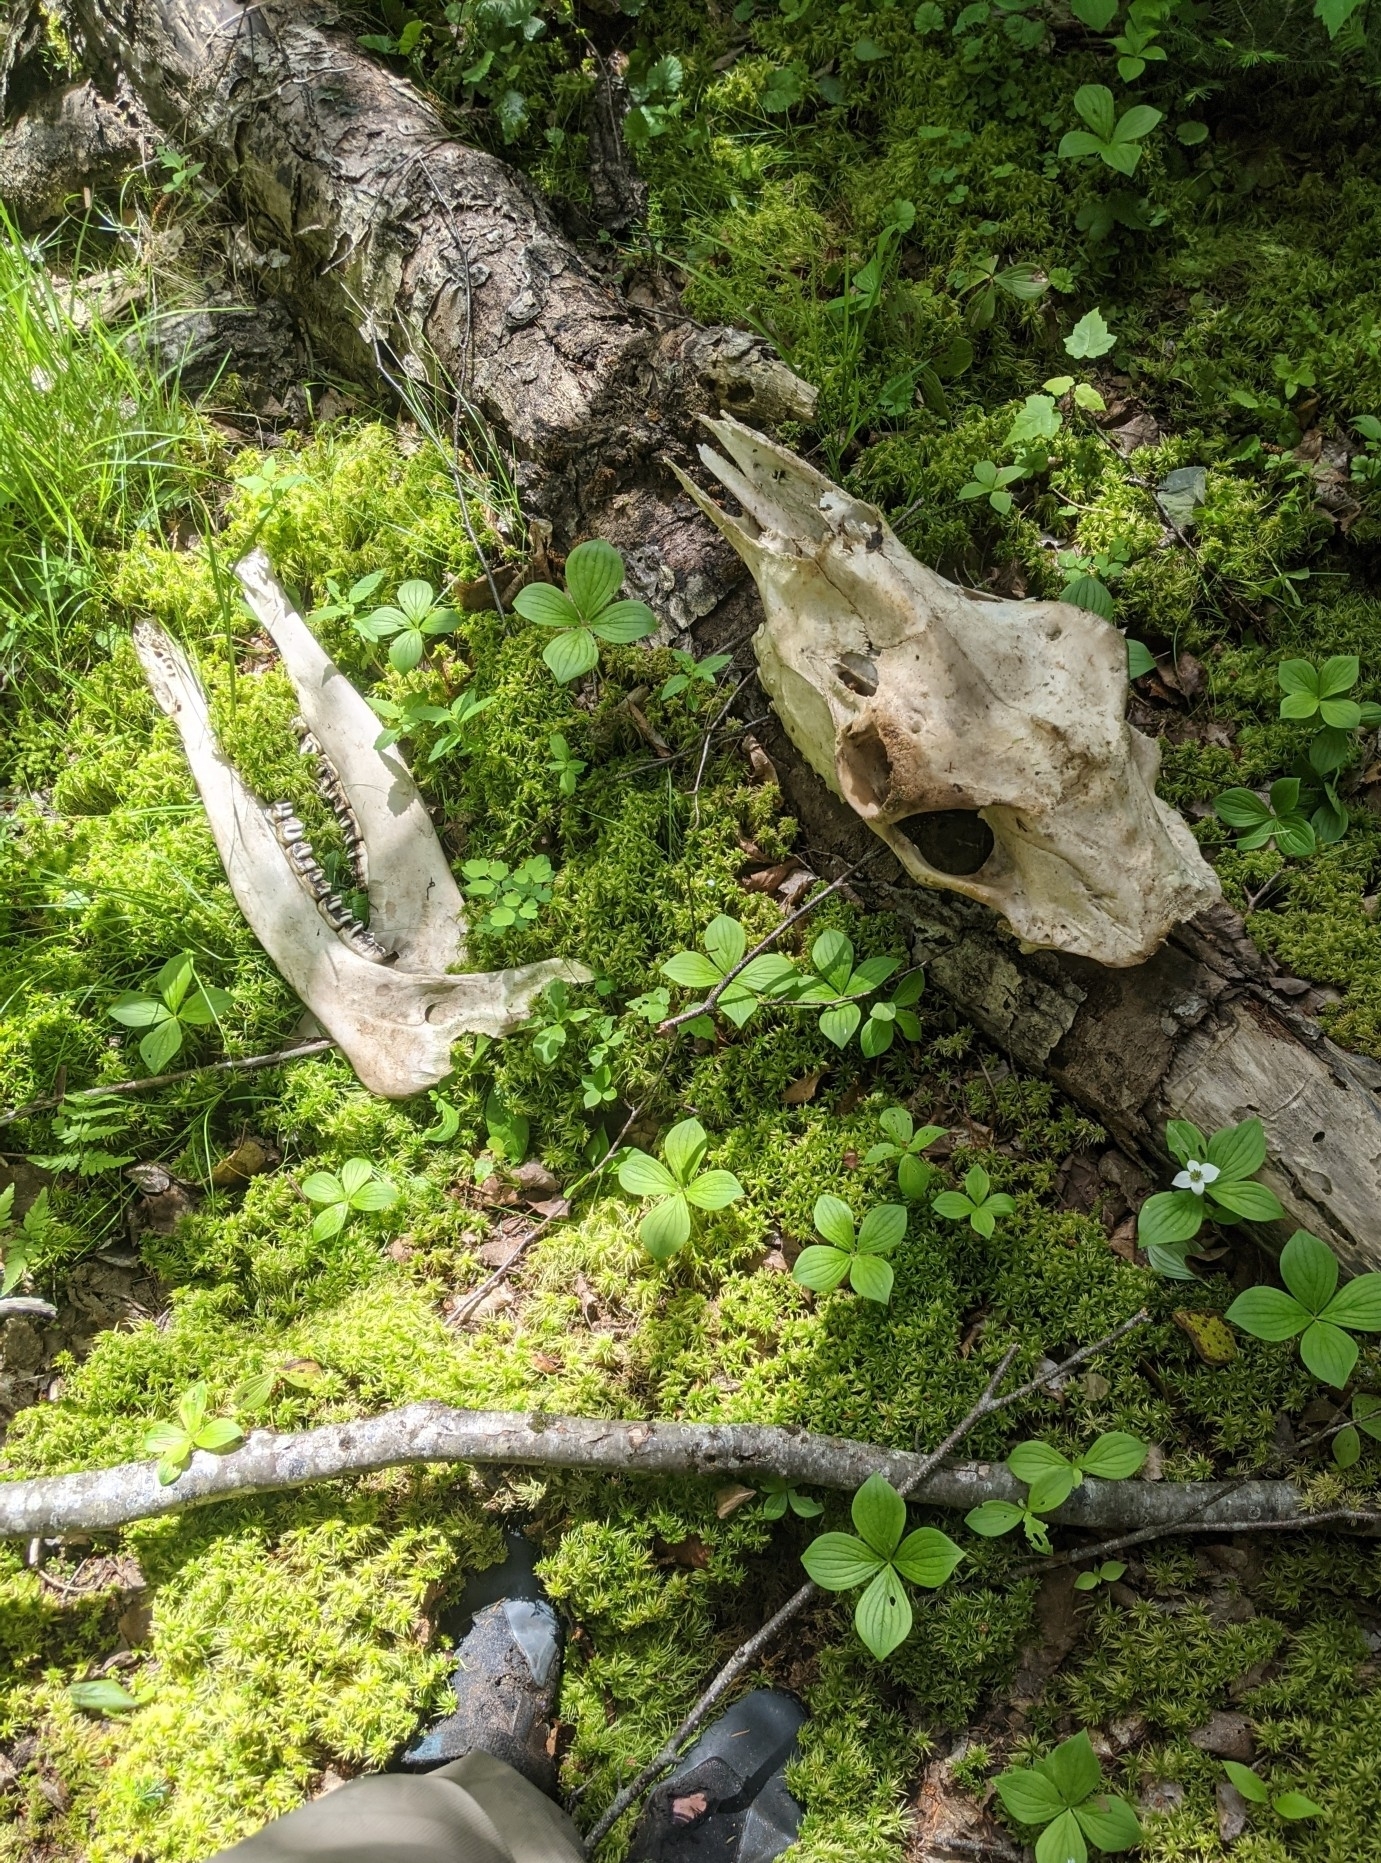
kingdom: Animalia
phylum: Chordata
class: Mammalia
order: Artiodactyla
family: Cervidae
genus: Alces
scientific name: Alces alces
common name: Moose
